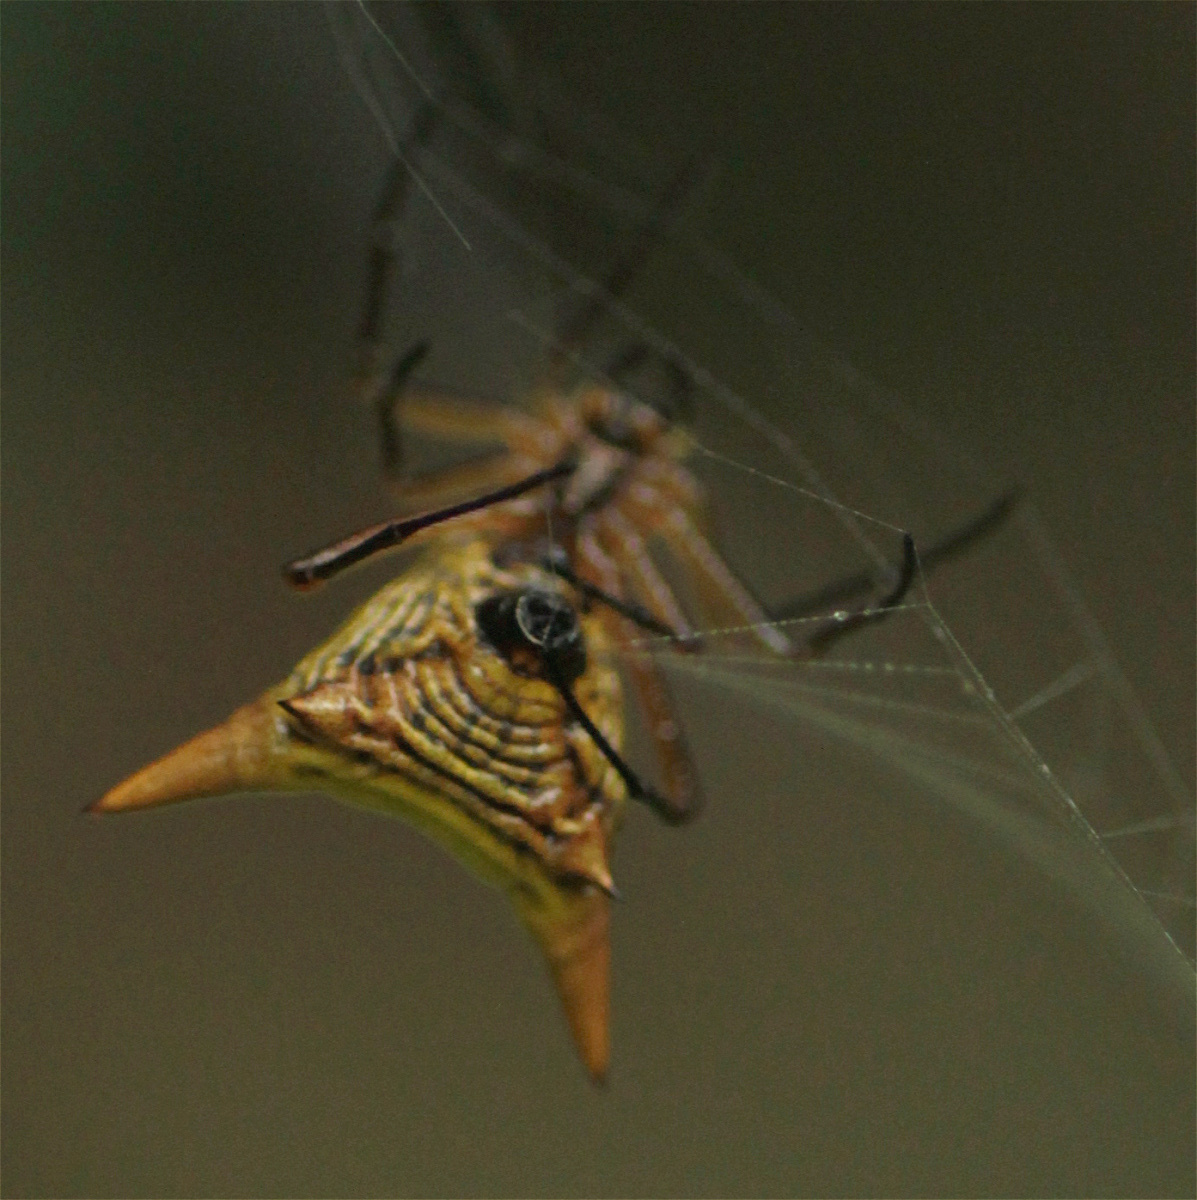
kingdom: Animalia
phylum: Arthropoda
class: Arachnida
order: Araneae
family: Araneidae
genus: Micrathena
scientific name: Micrathena bicolor
